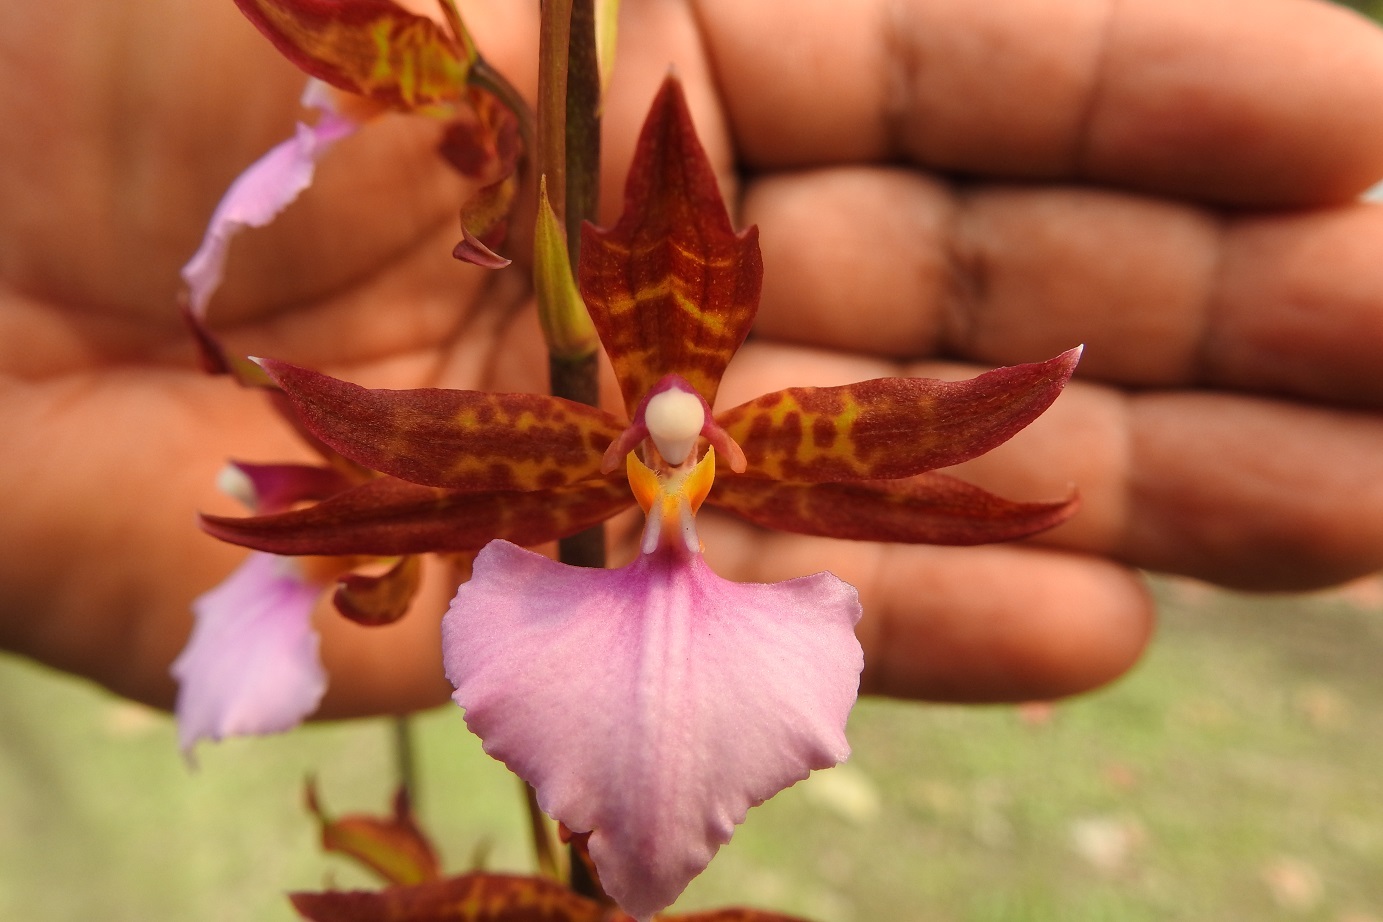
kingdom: Plantae
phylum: Tracheophyta
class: Liliopsida
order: Asparagales
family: Orchidaceae
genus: Rhynchostele
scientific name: Rhynchostele bictoniensis
